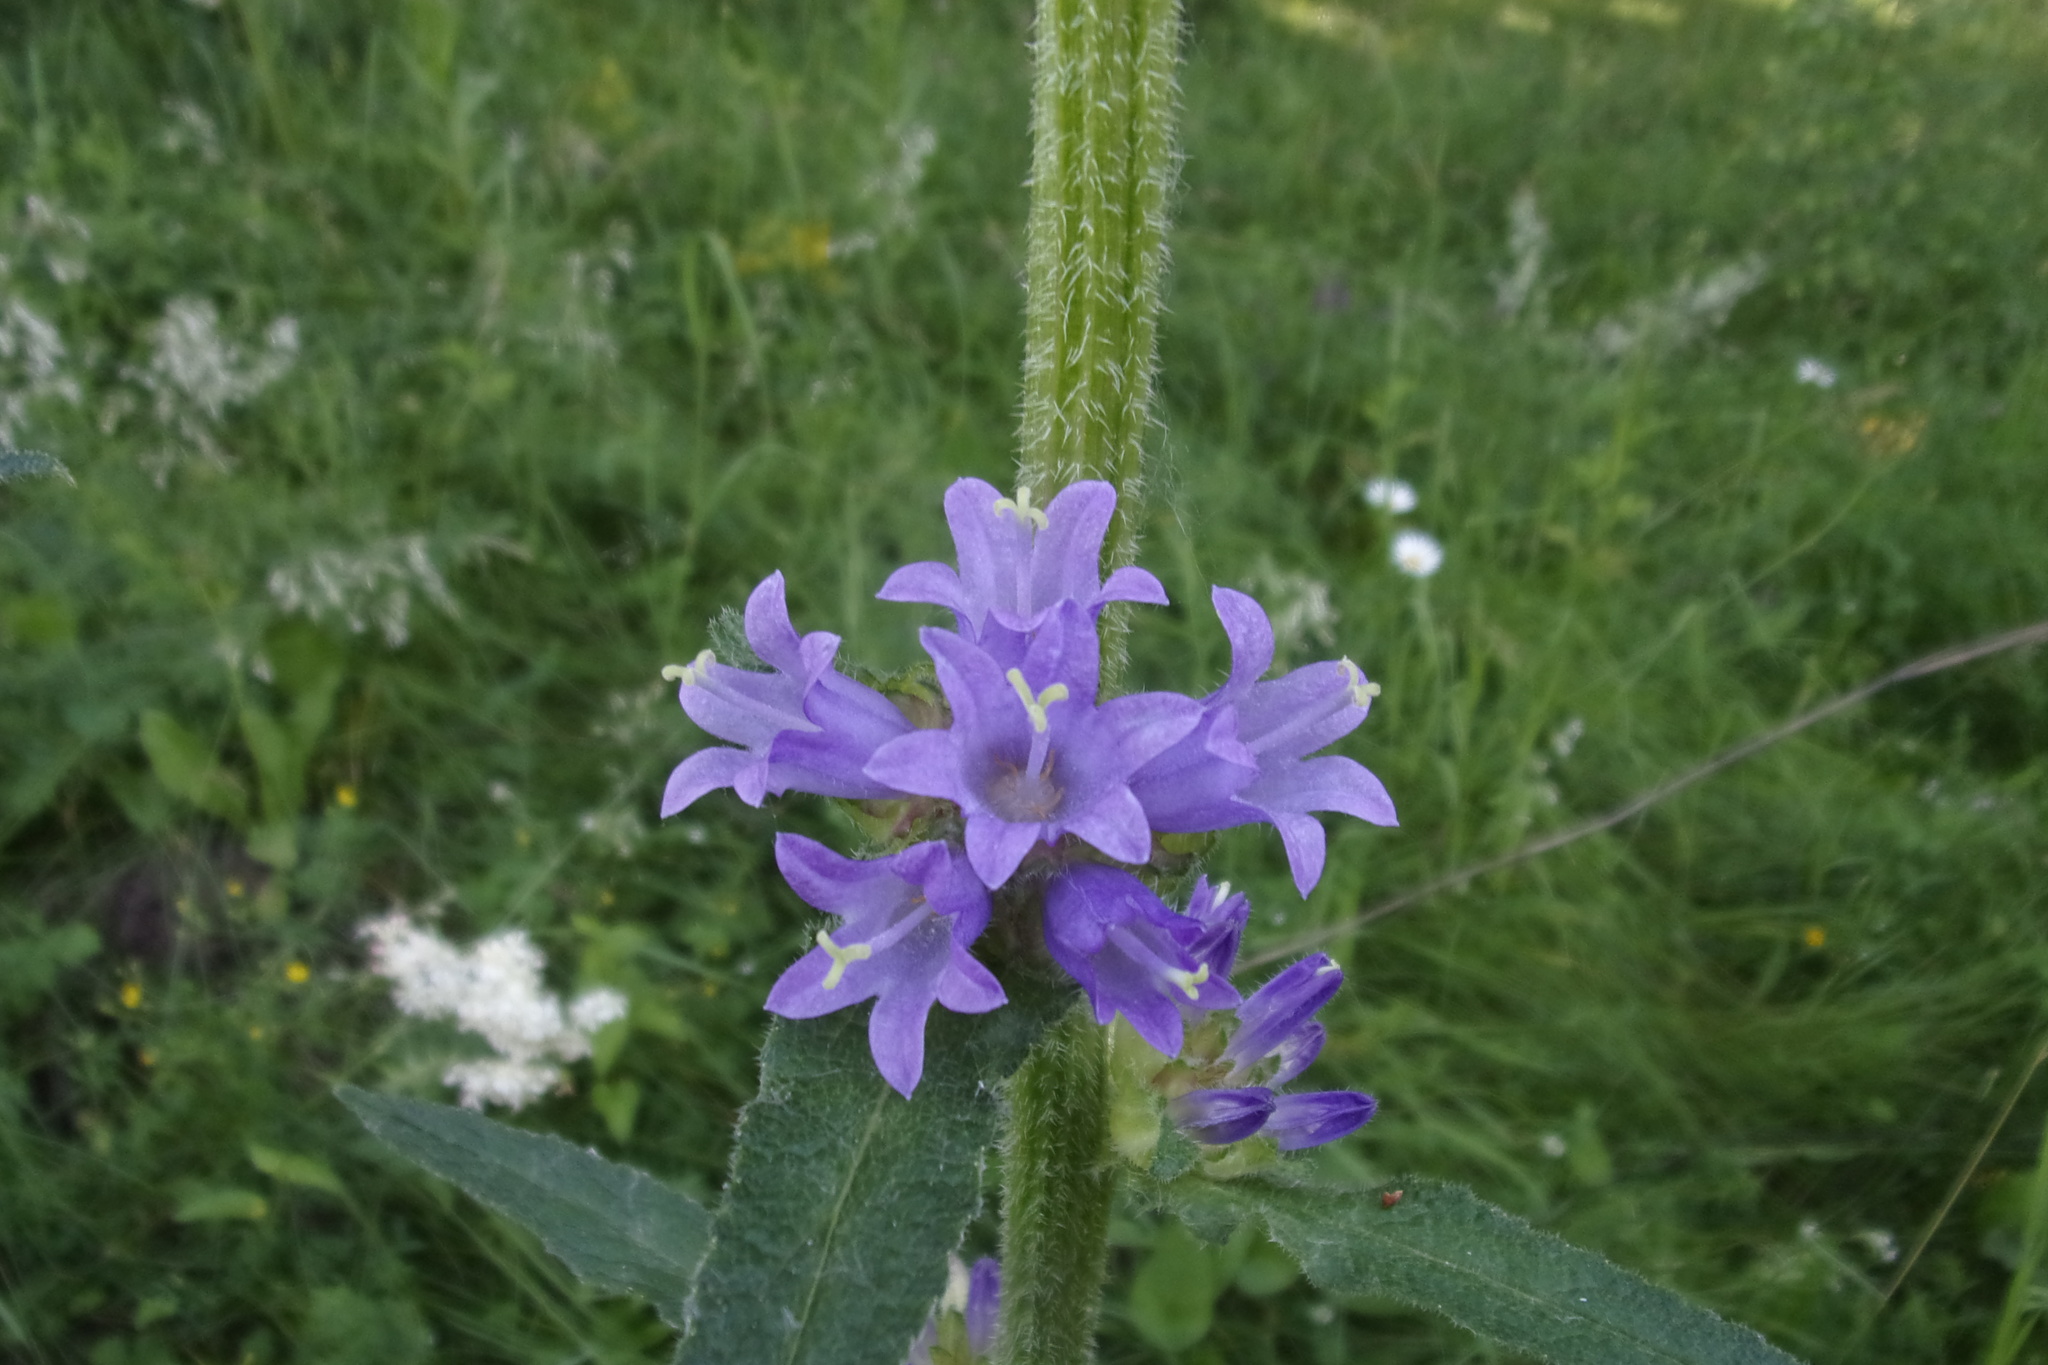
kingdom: Plantae
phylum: Tracheophyta
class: Magnoliopsida
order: Asterales
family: Campanulaceae
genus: Campanula
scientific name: Campanula cervicaria
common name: Bristly bellflower
